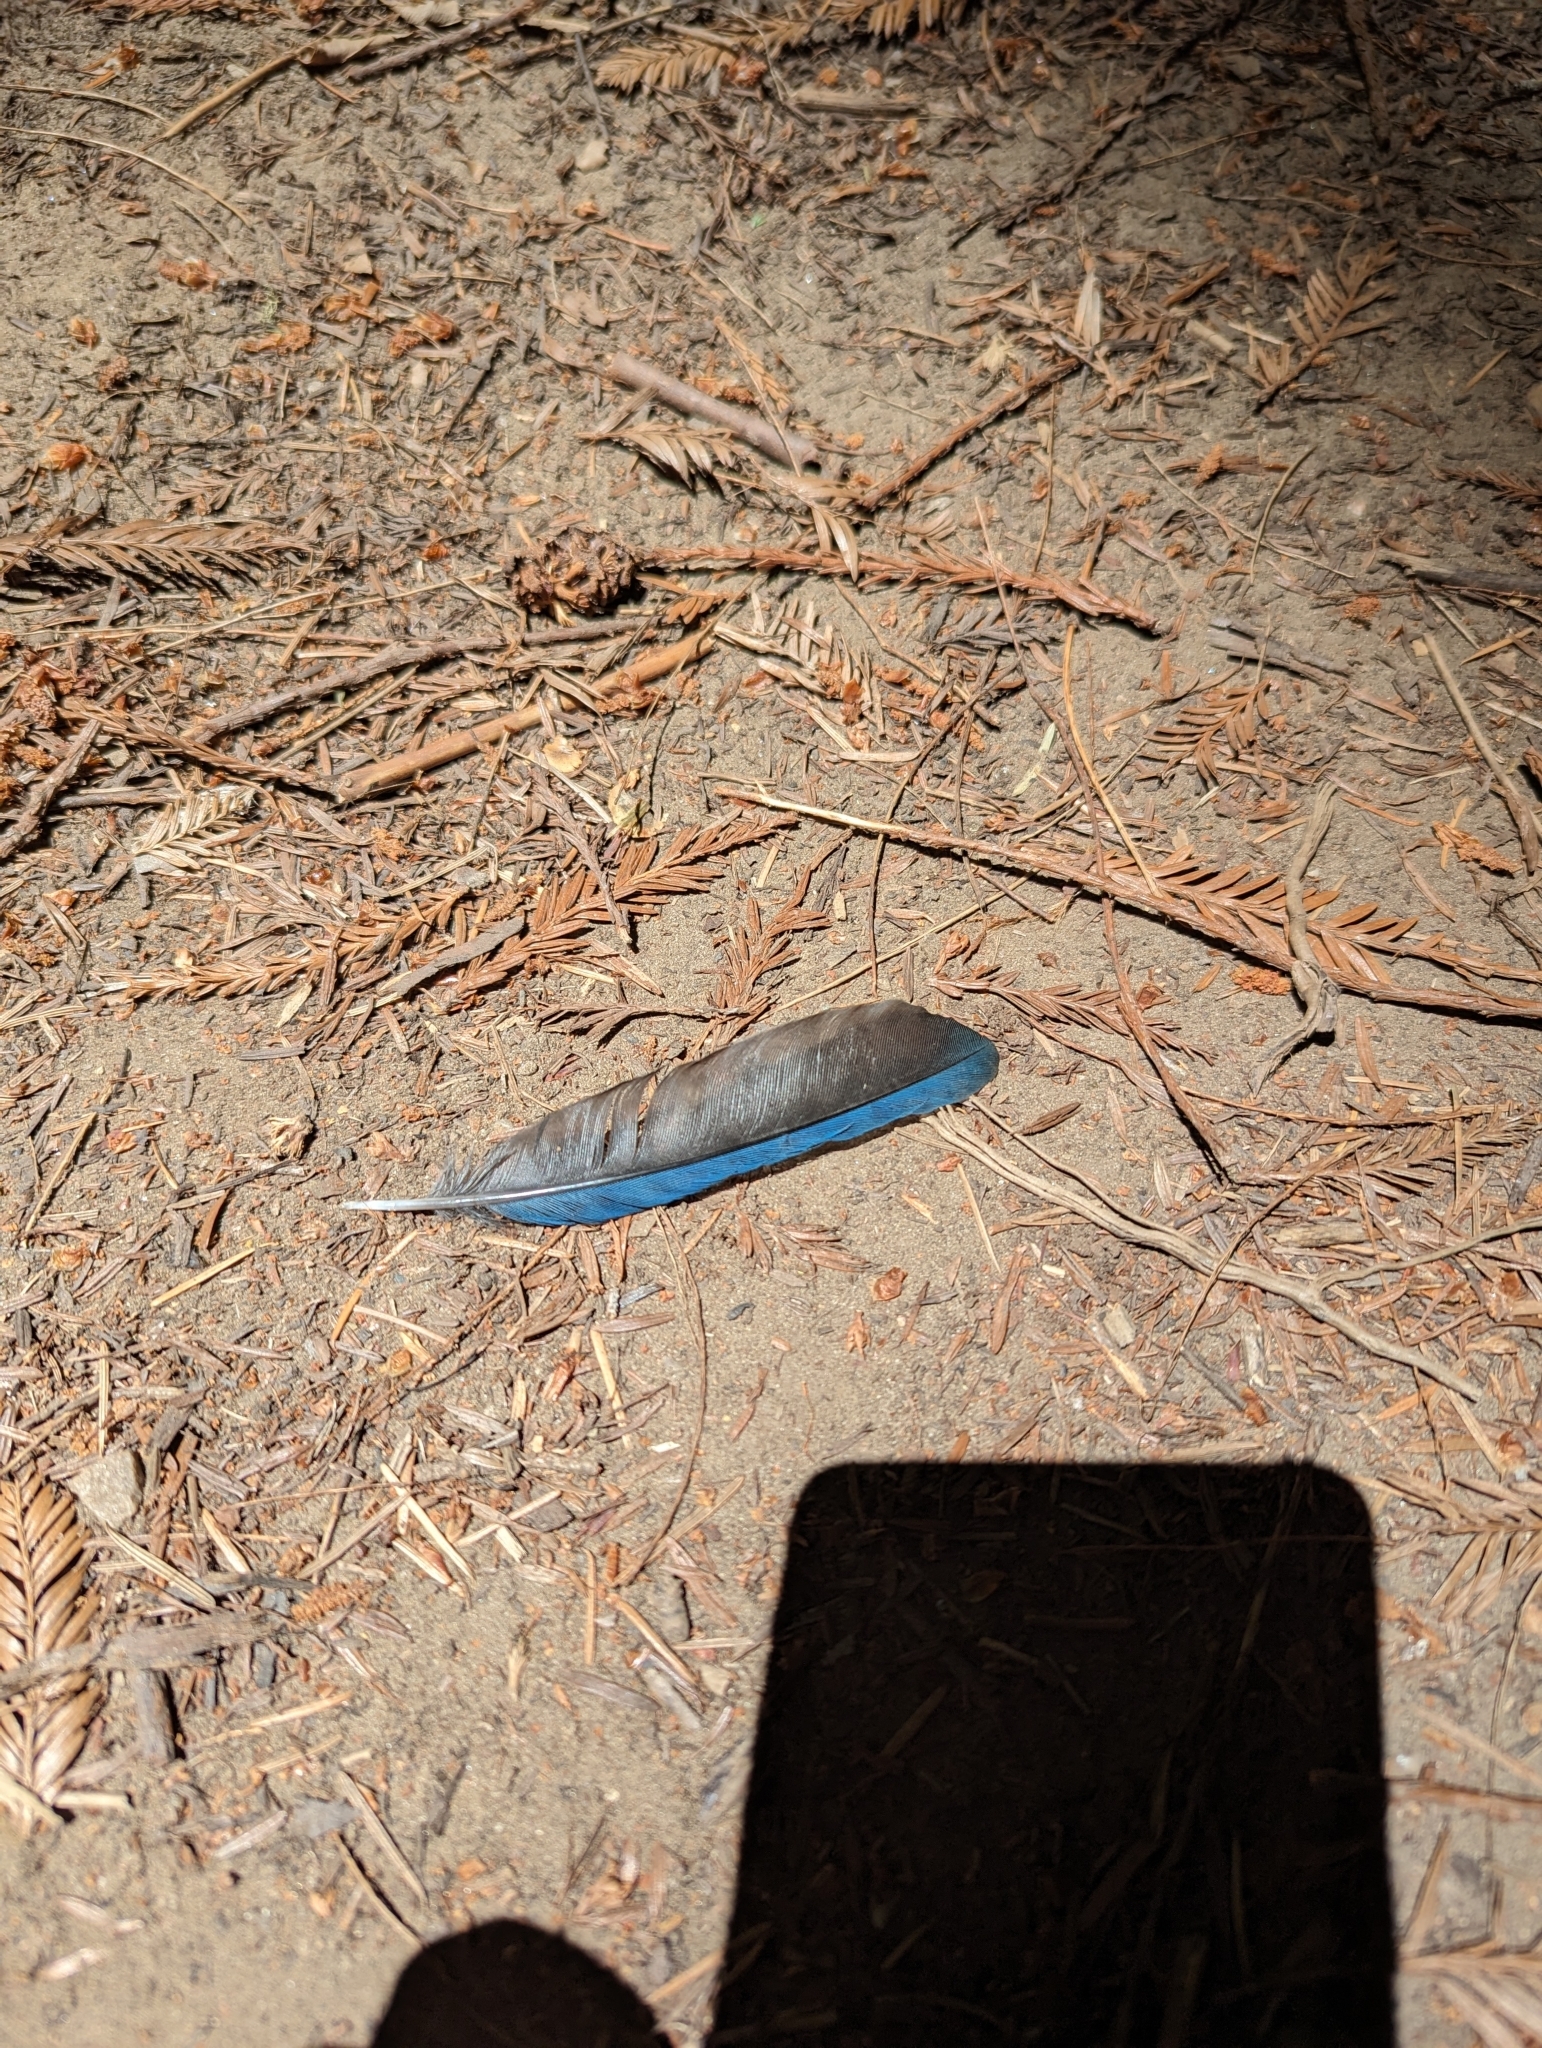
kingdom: Animalia
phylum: Chordata
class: Aves
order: Passeriformes
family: Corvidae
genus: Cyanocitta
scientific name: Cyanocitta stelleri
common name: Steller's jay
